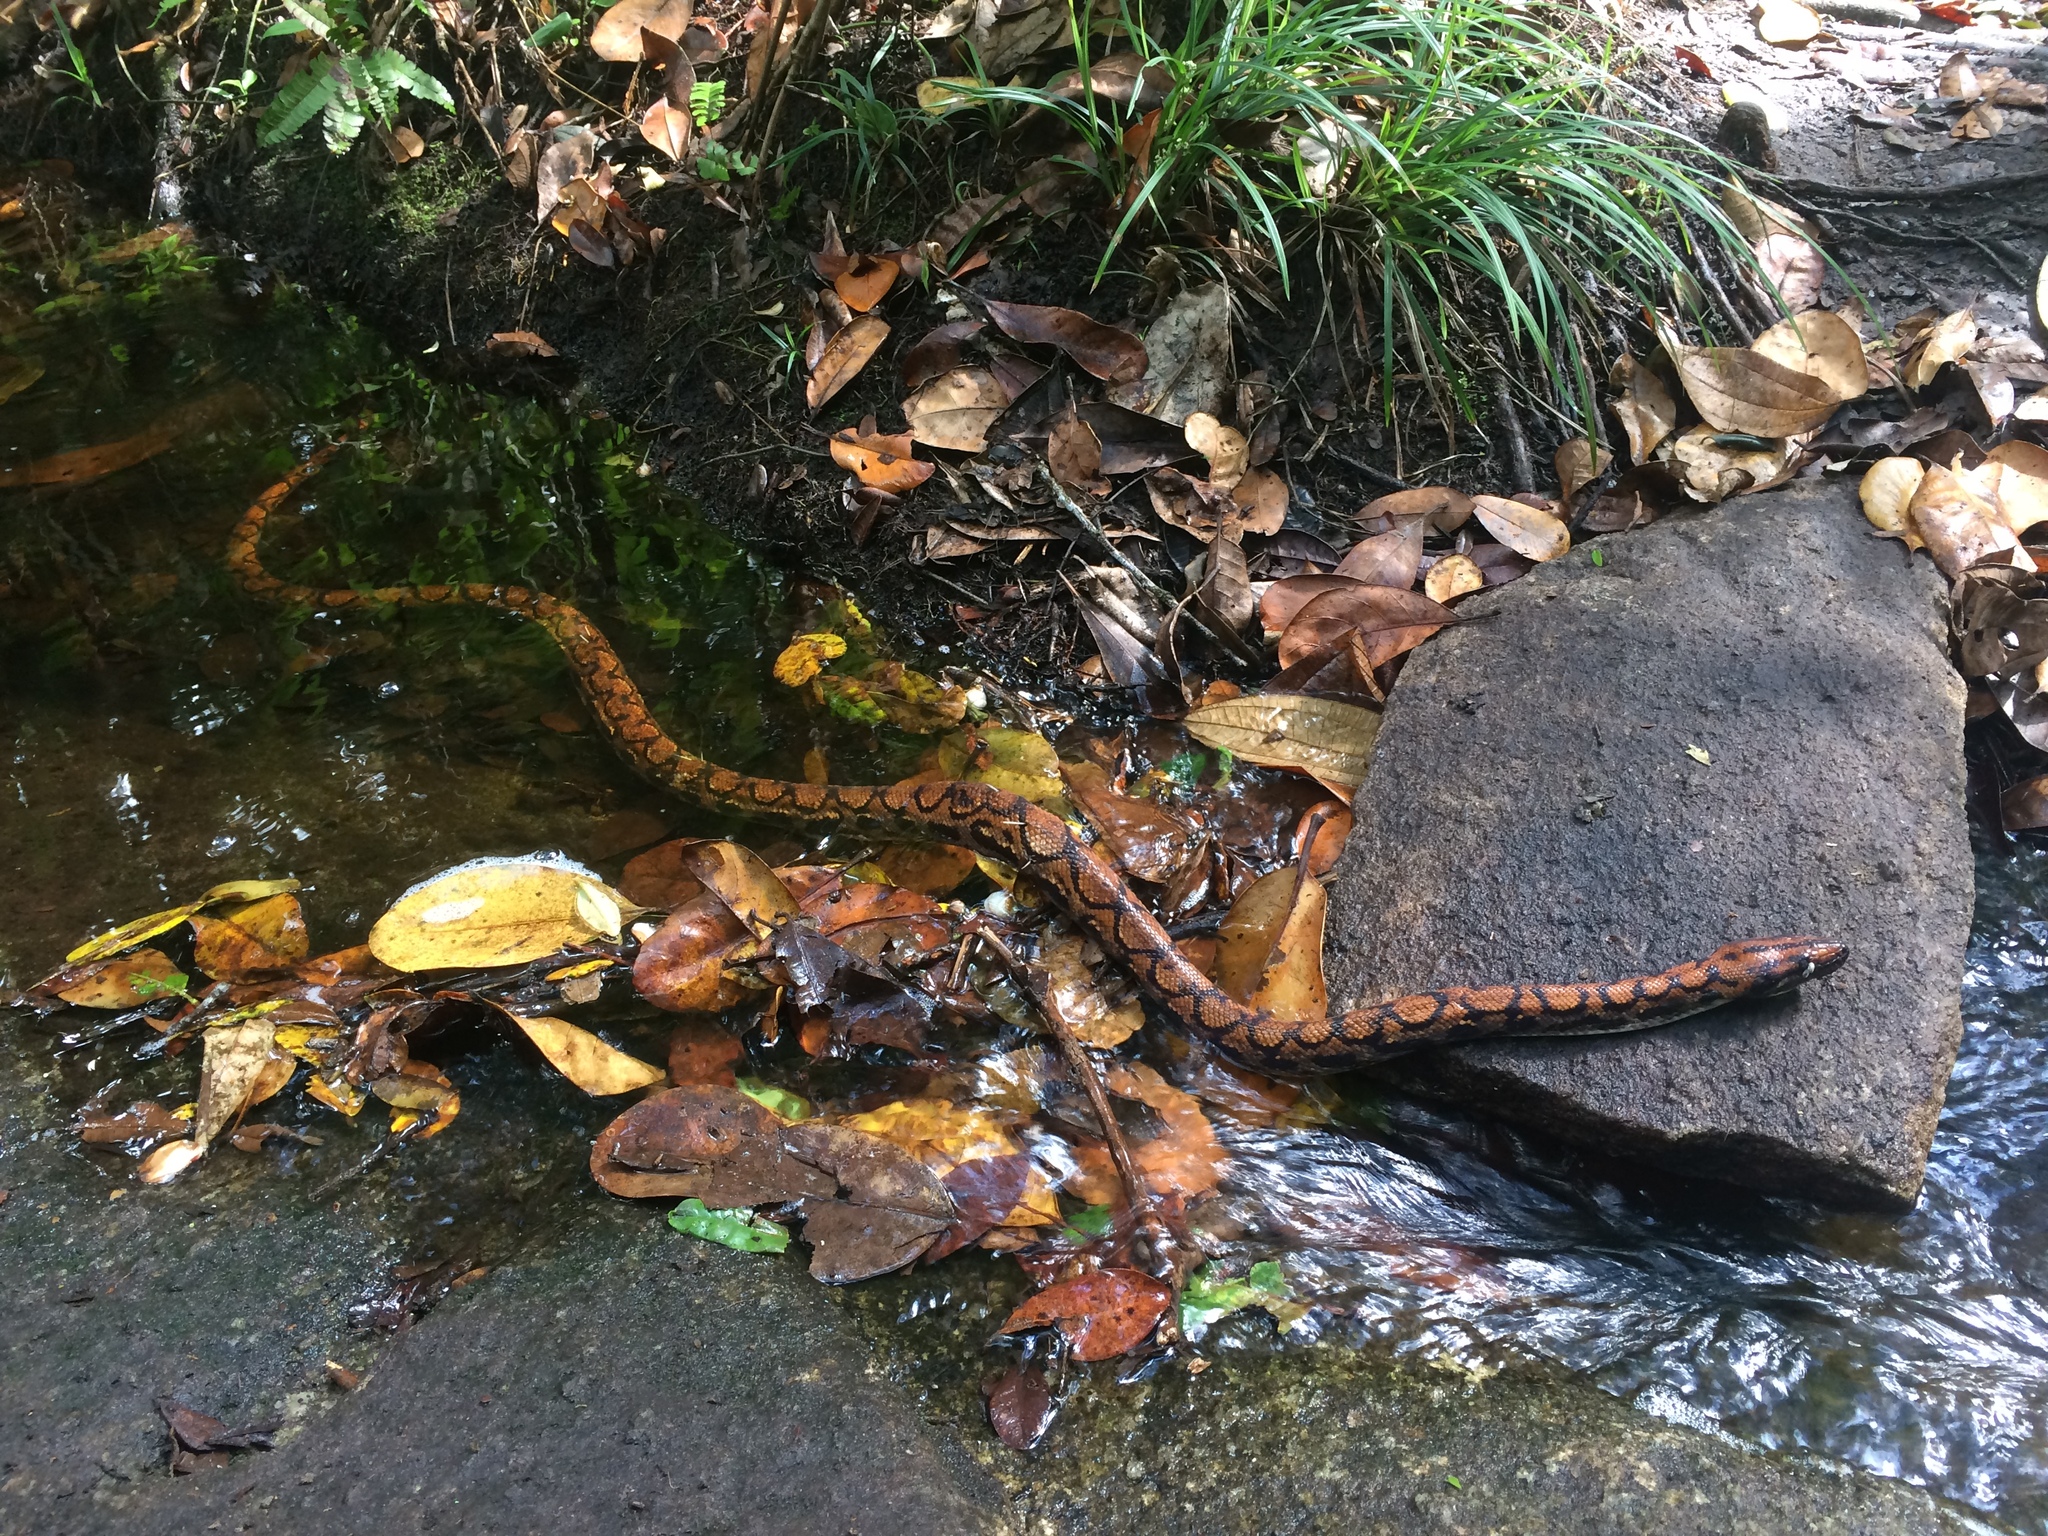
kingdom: Animalia
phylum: Chordata
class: Squamata
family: Boidae
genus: Epicrates
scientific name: Epicrates cenchria
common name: Rainbow boa
